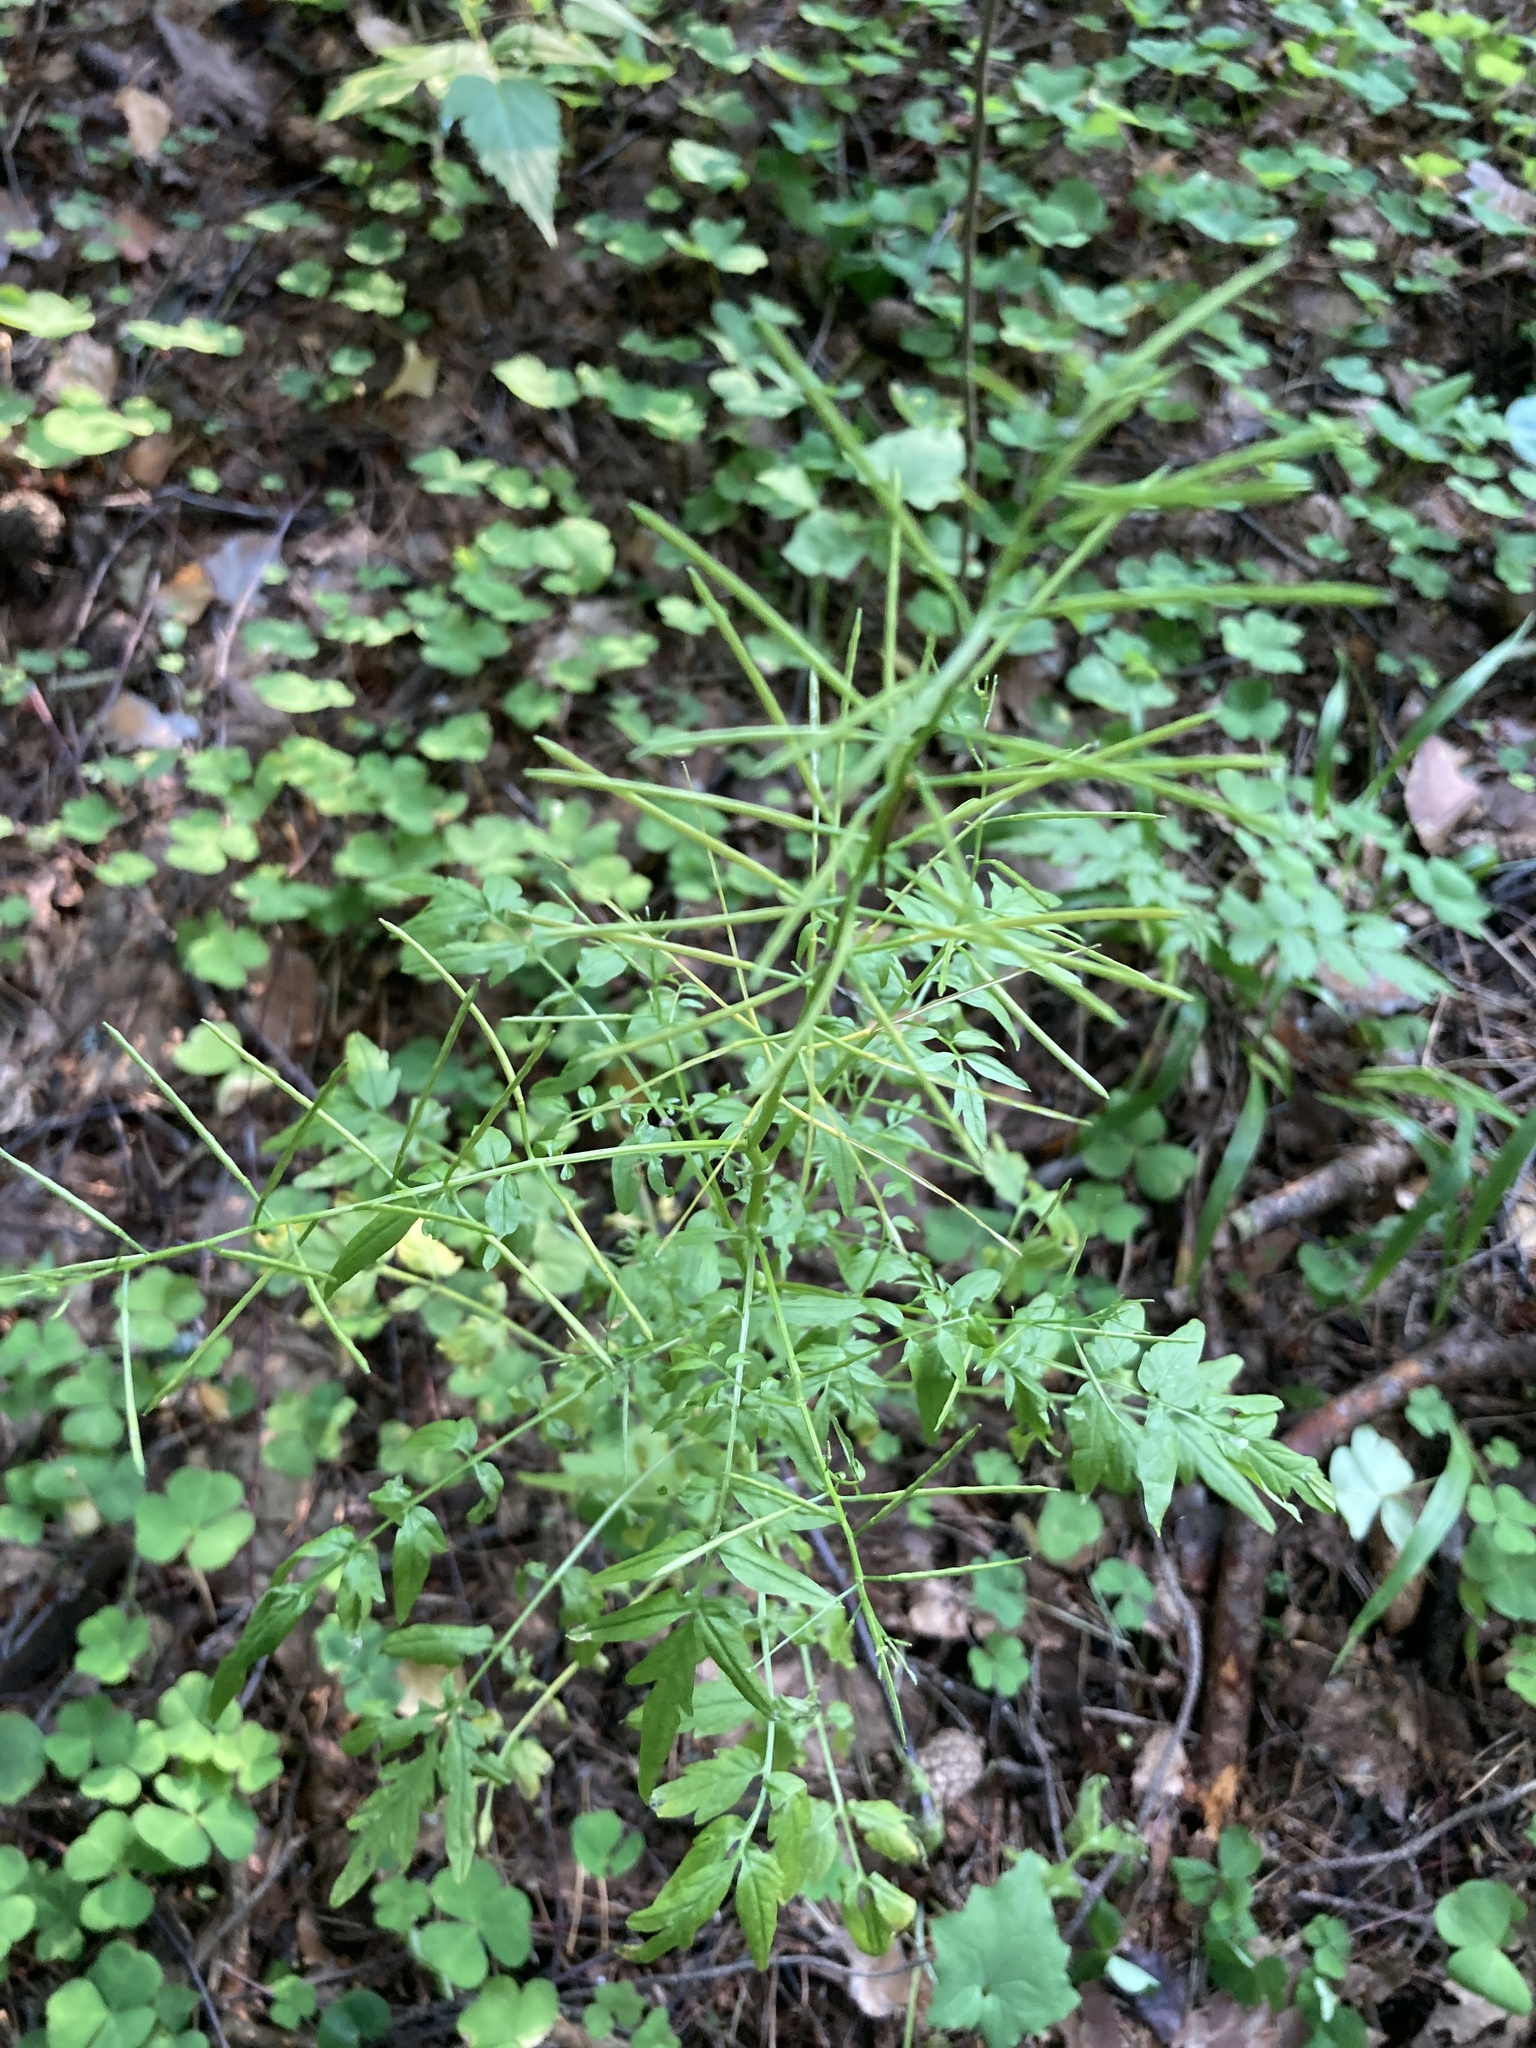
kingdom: Plantae
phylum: Tracheophyta
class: Magnoliopsida
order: Brassicales
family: Brassicaceae
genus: Cardamine
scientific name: Cardamine impatiens
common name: Narrow-leaved bitter-cress
